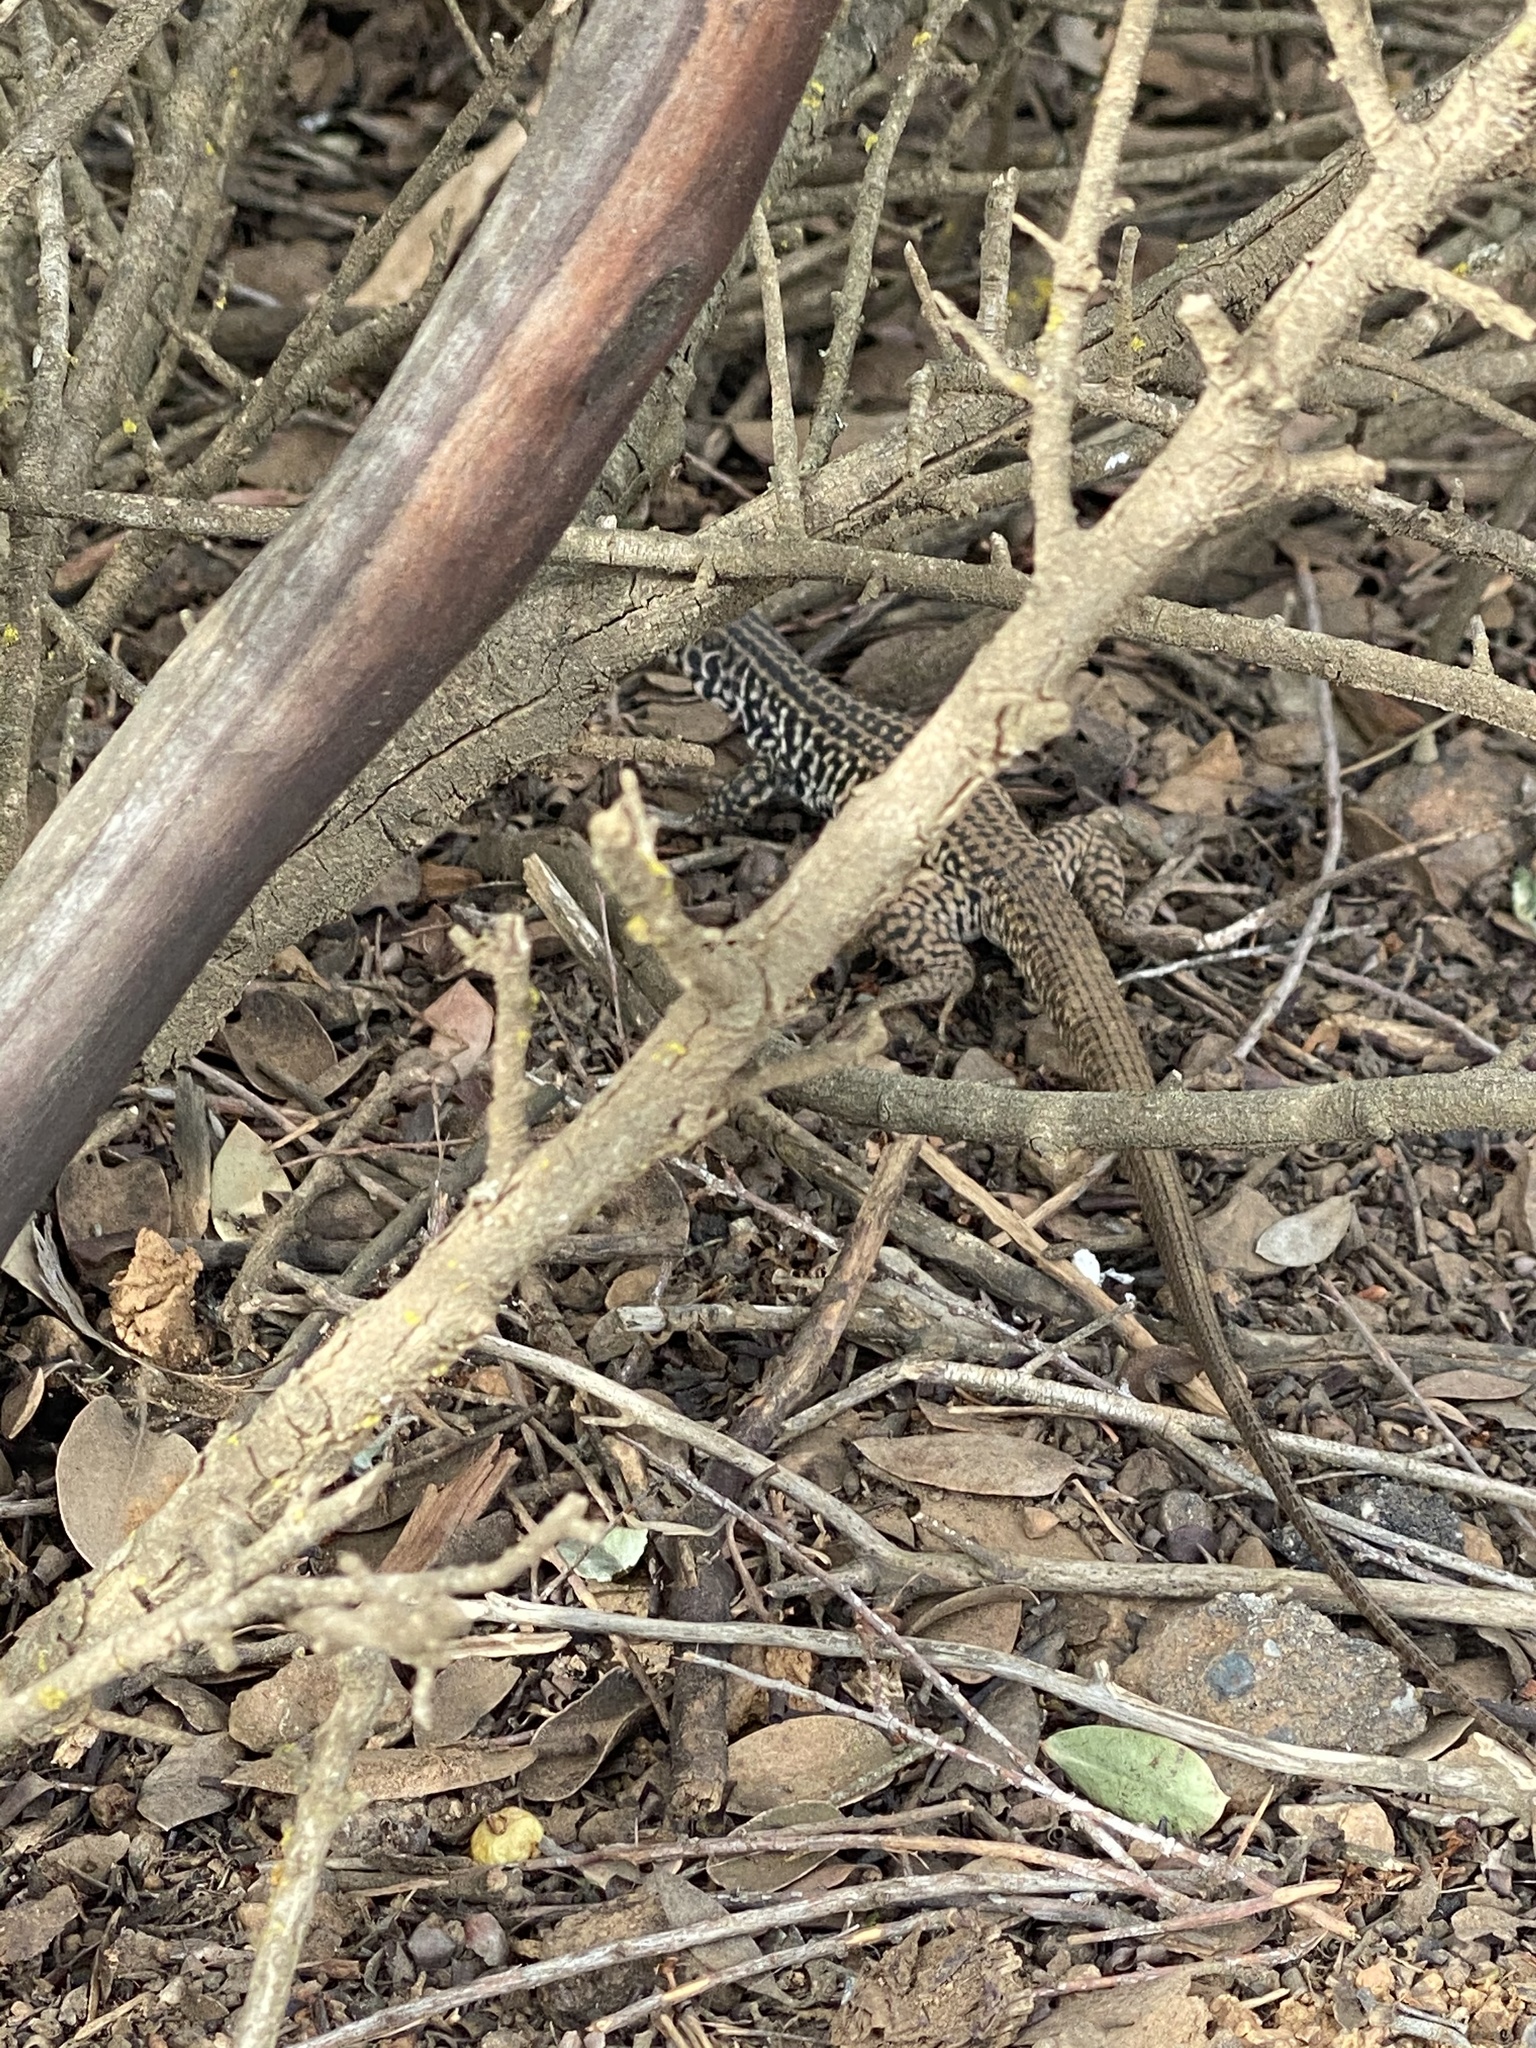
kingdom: Animalia
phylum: Chordata
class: Squamata
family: Teiidae
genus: Aspidoscelis
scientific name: Aspidoscelis tigris
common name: Tiger whiptail
